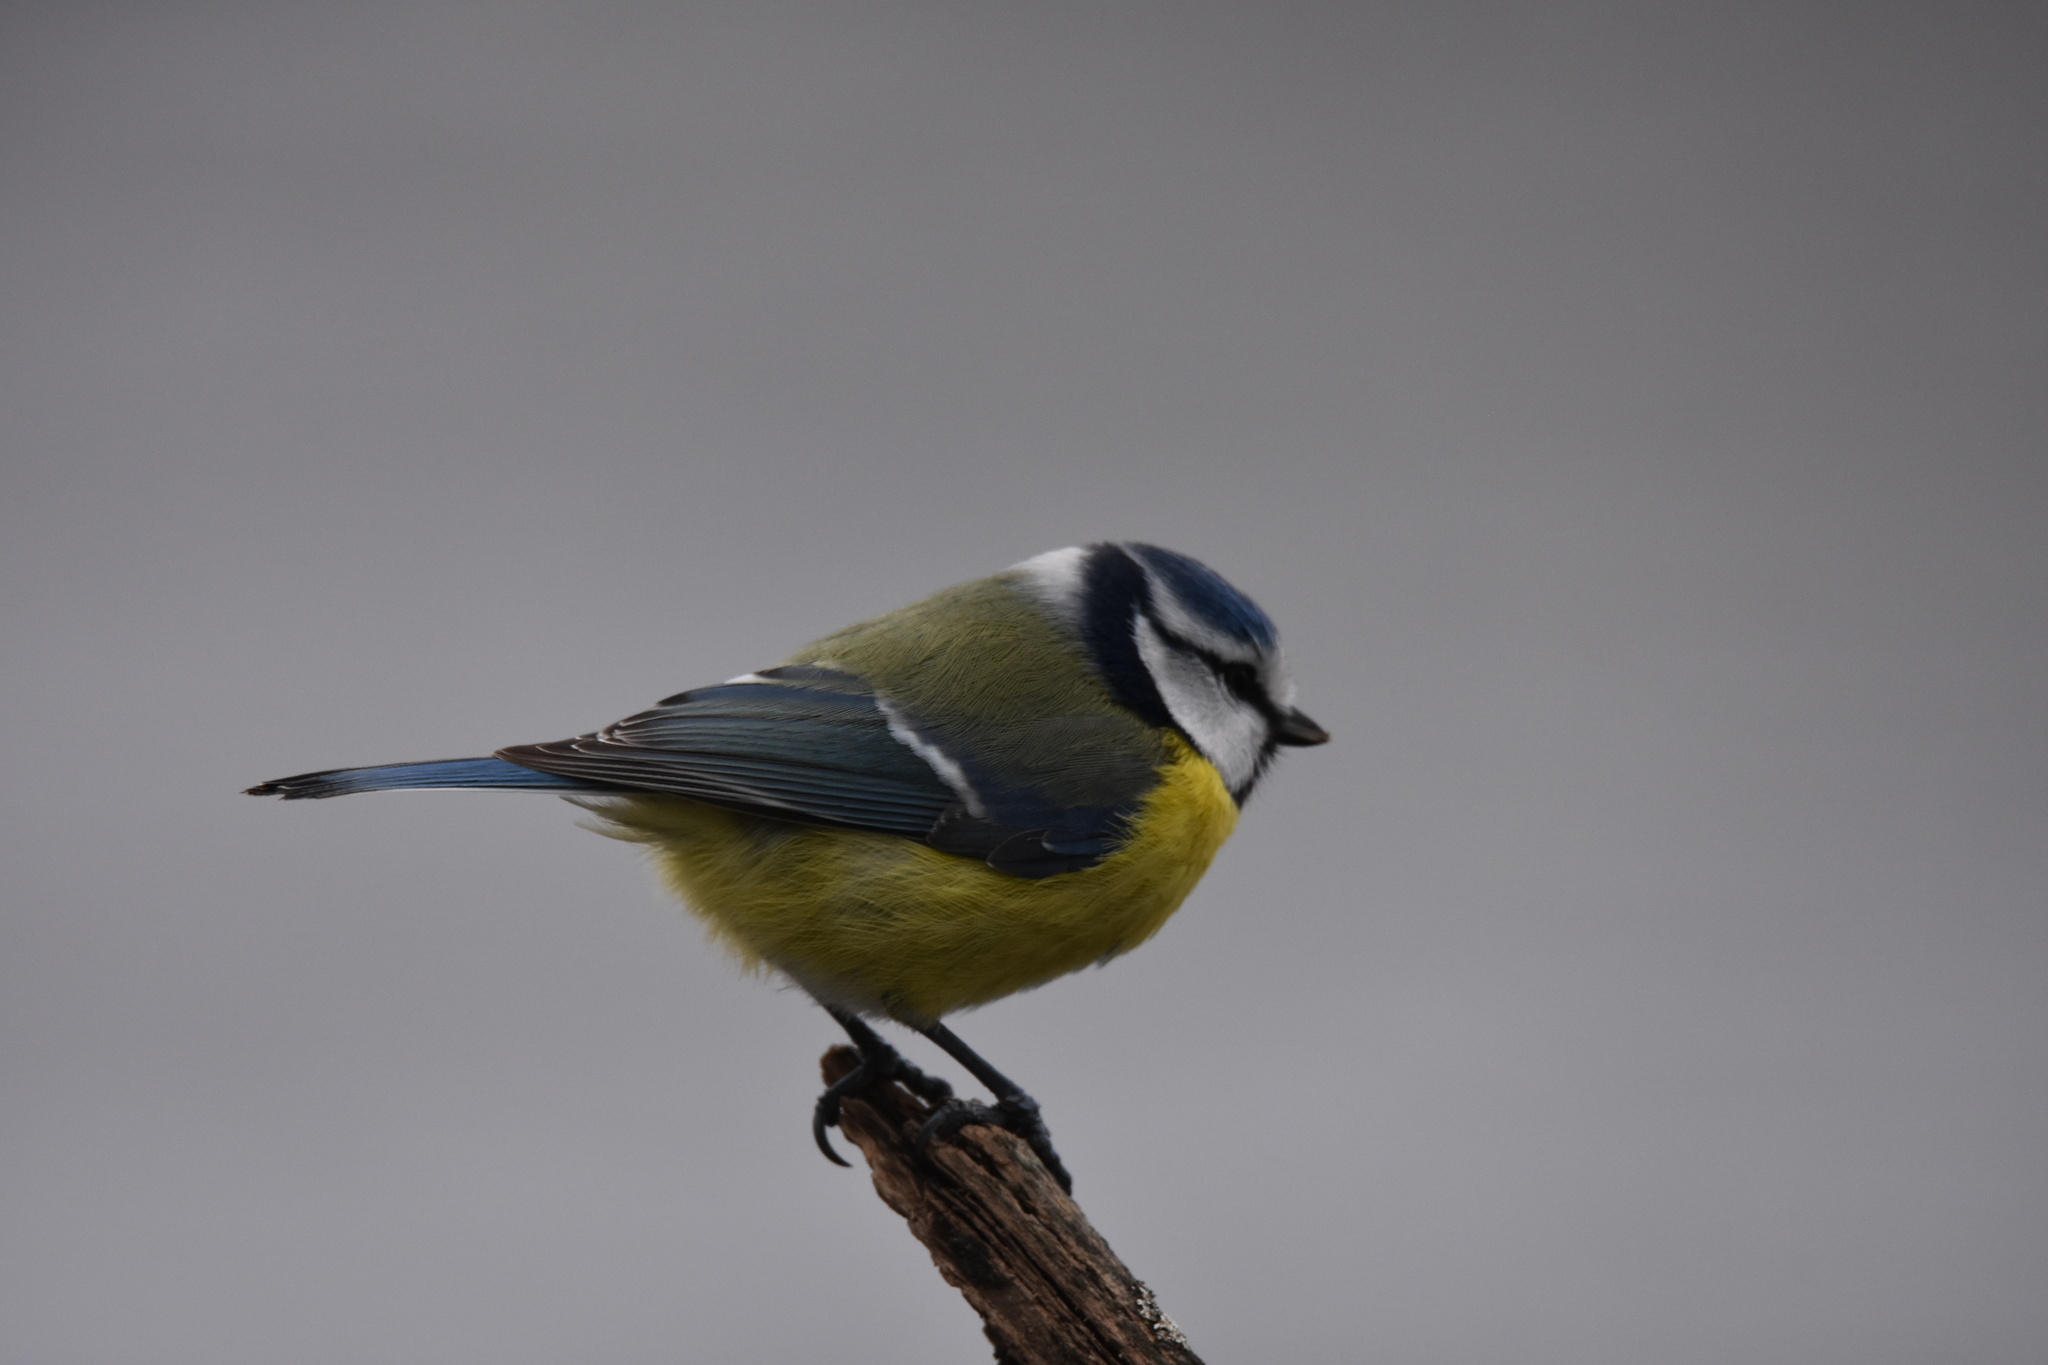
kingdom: Animalia
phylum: Chordata
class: Aves
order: Passeriformes
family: Paridae
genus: Cyanistes
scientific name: Cyanistes caeruleus
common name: Eurasian blue tit
